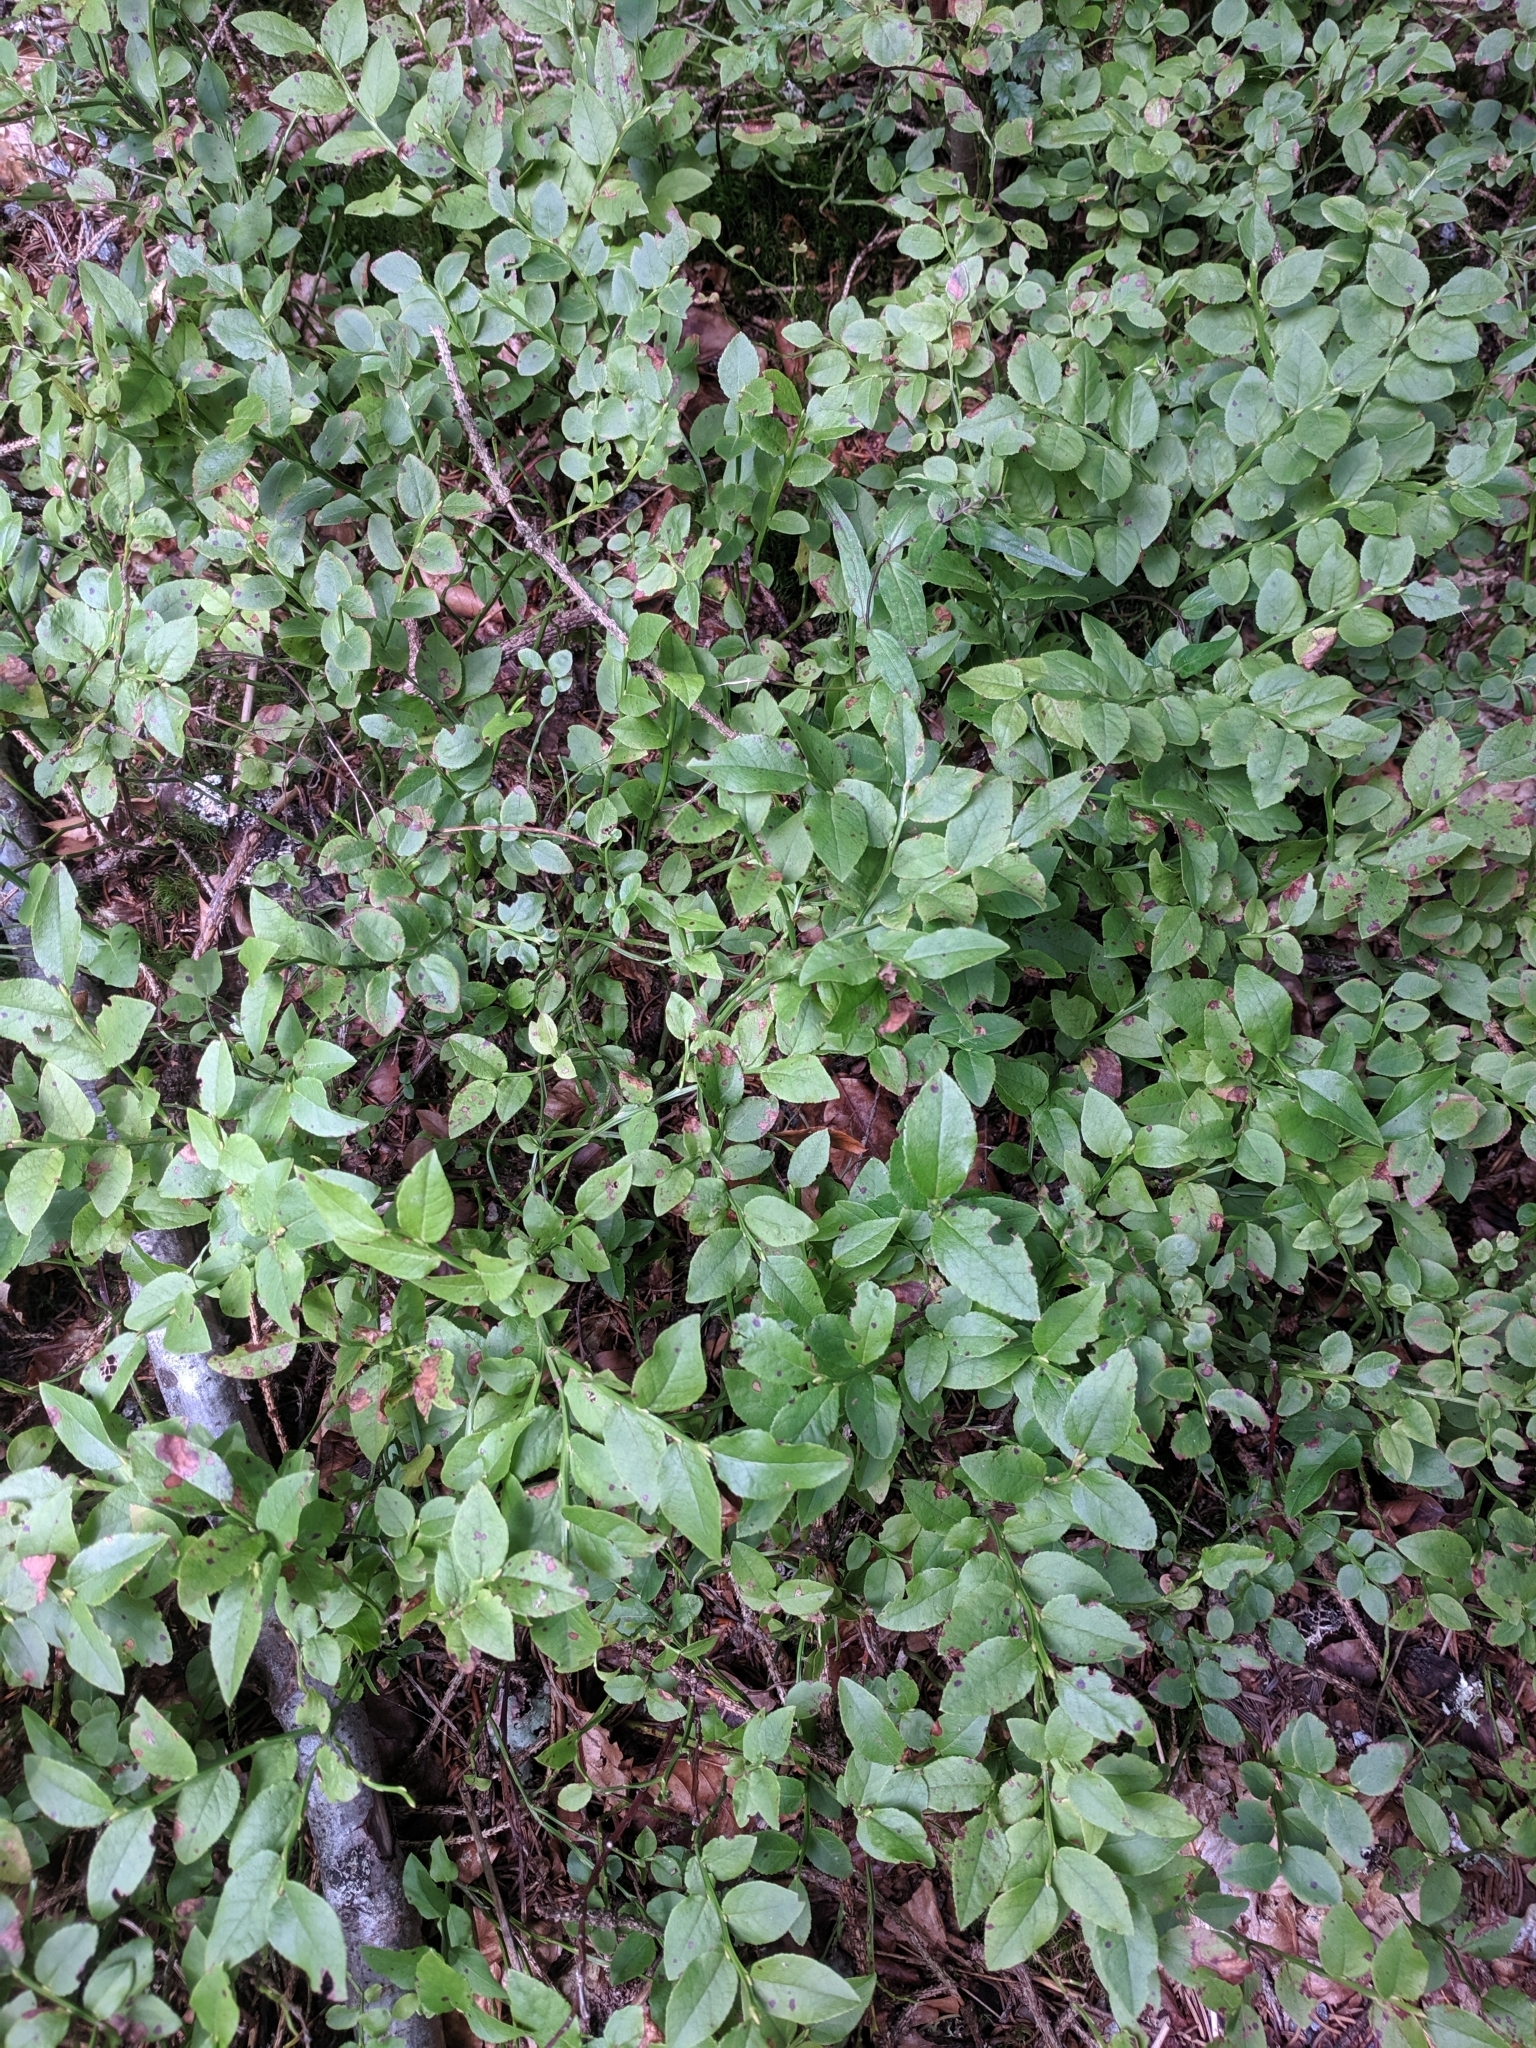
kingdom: Plantae
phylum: Tracheophyta
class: Magnoliopsida
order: Ericales
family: Ericaceae
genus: Vaccinium
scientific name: Vaccinium myrtillus
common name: Bilberry
